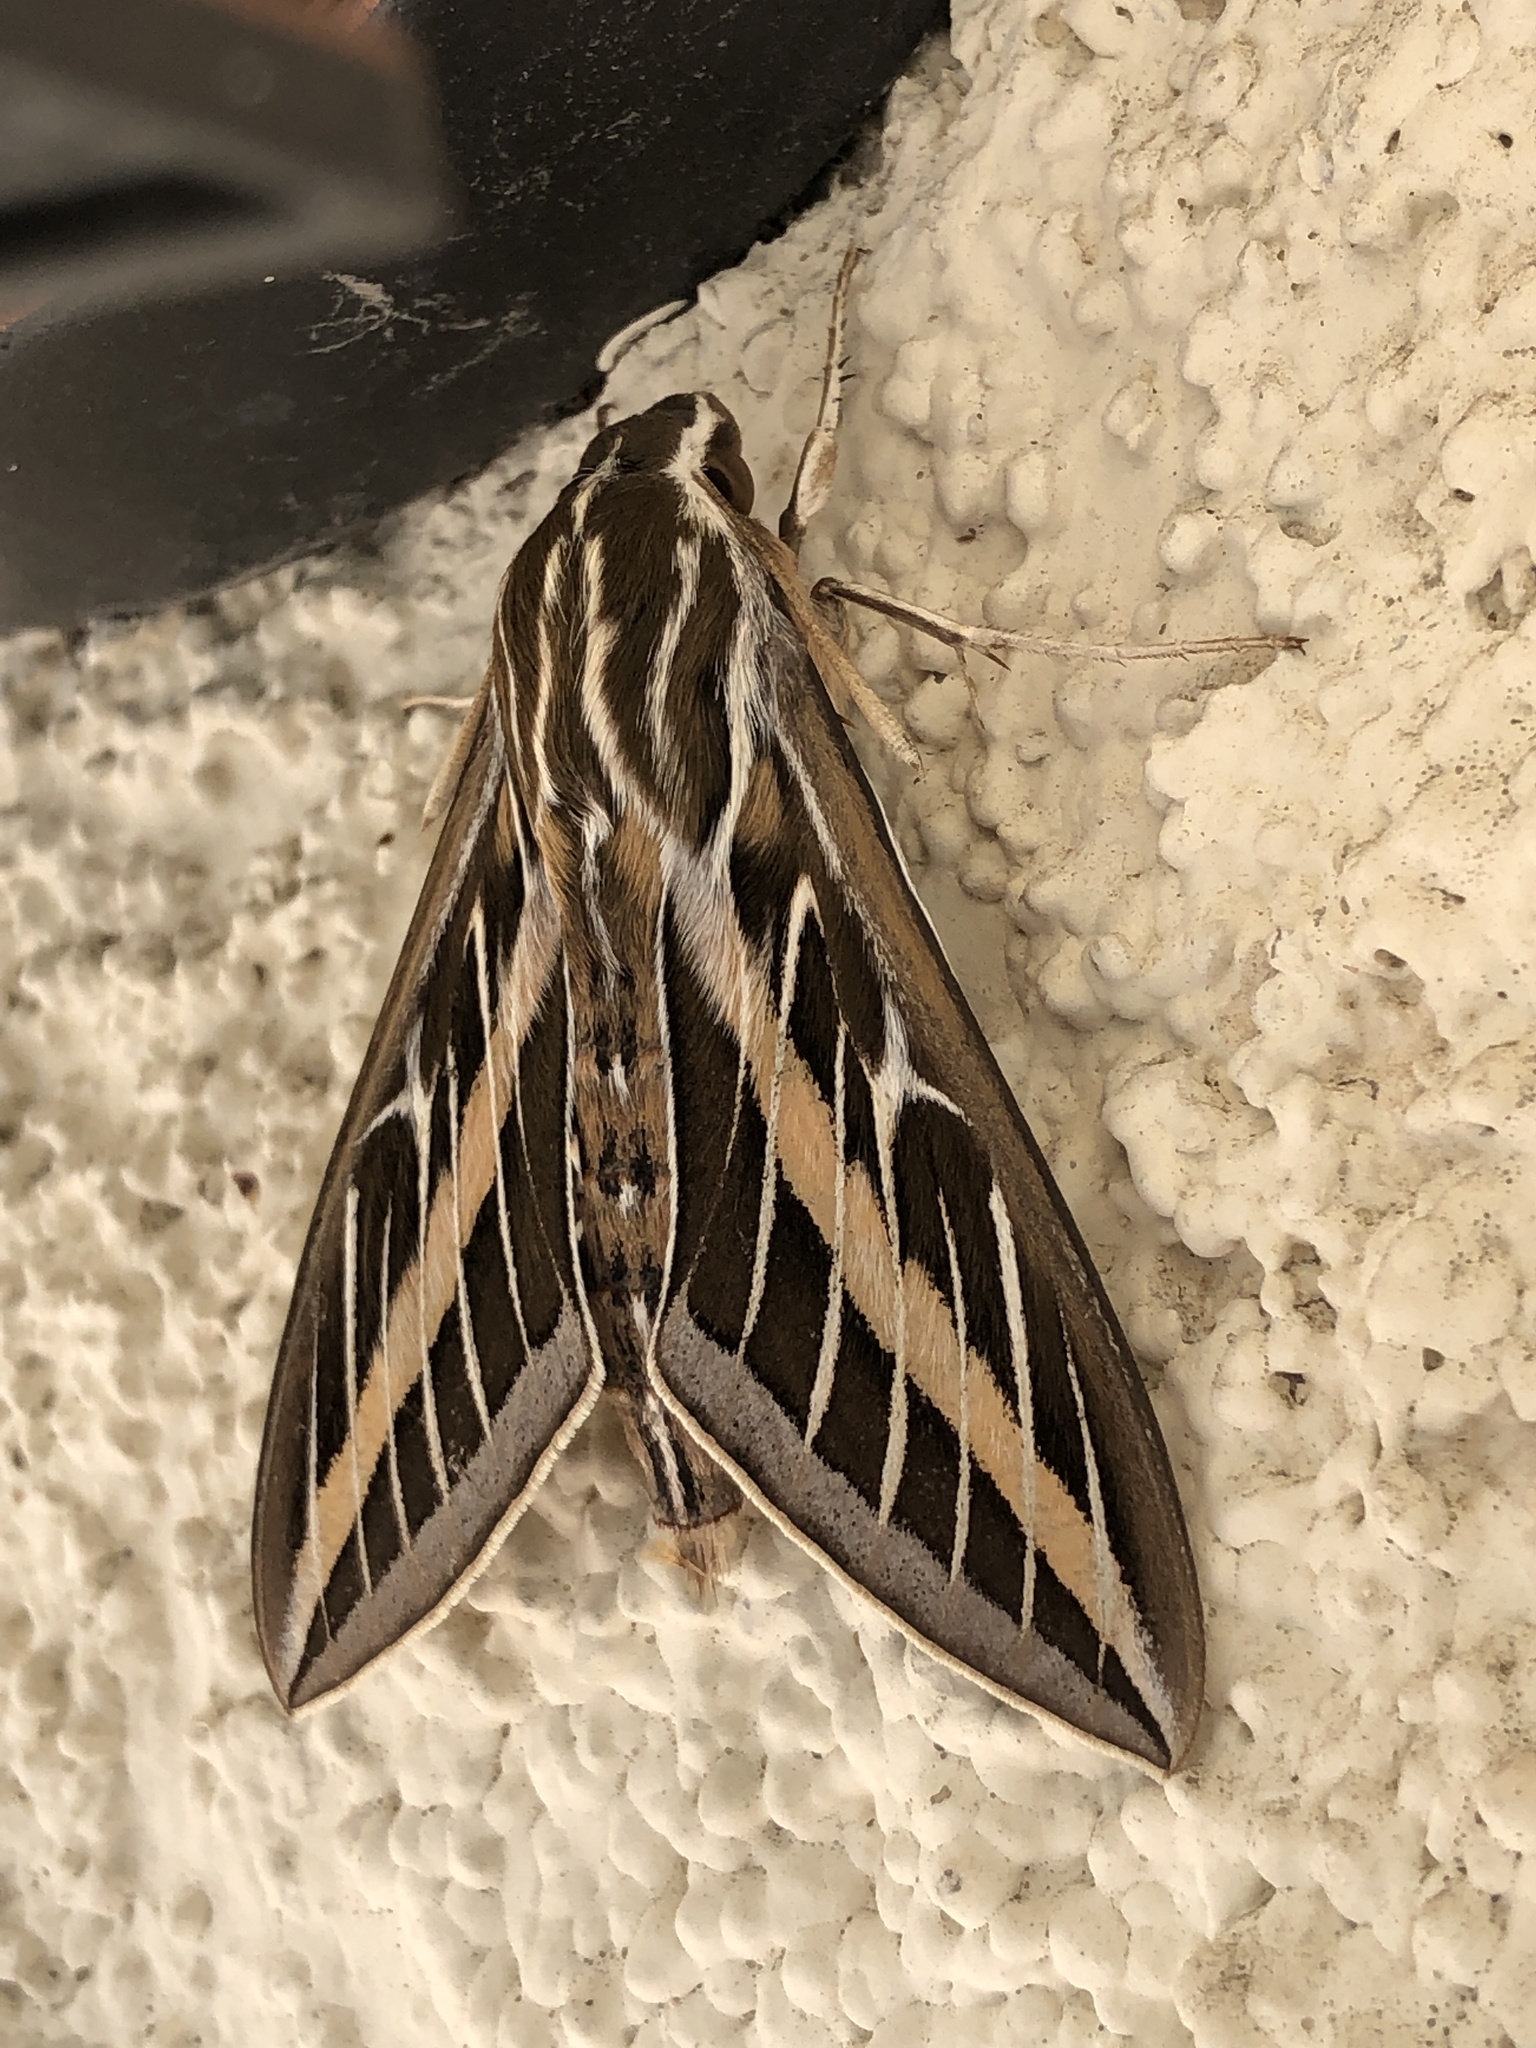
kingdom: Animalia
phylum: Arthropoda
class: Insecta
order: Lepidoptera
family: Sphingidae
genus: Hyles
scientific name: Hyles lineata
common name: White-lined sphinx
